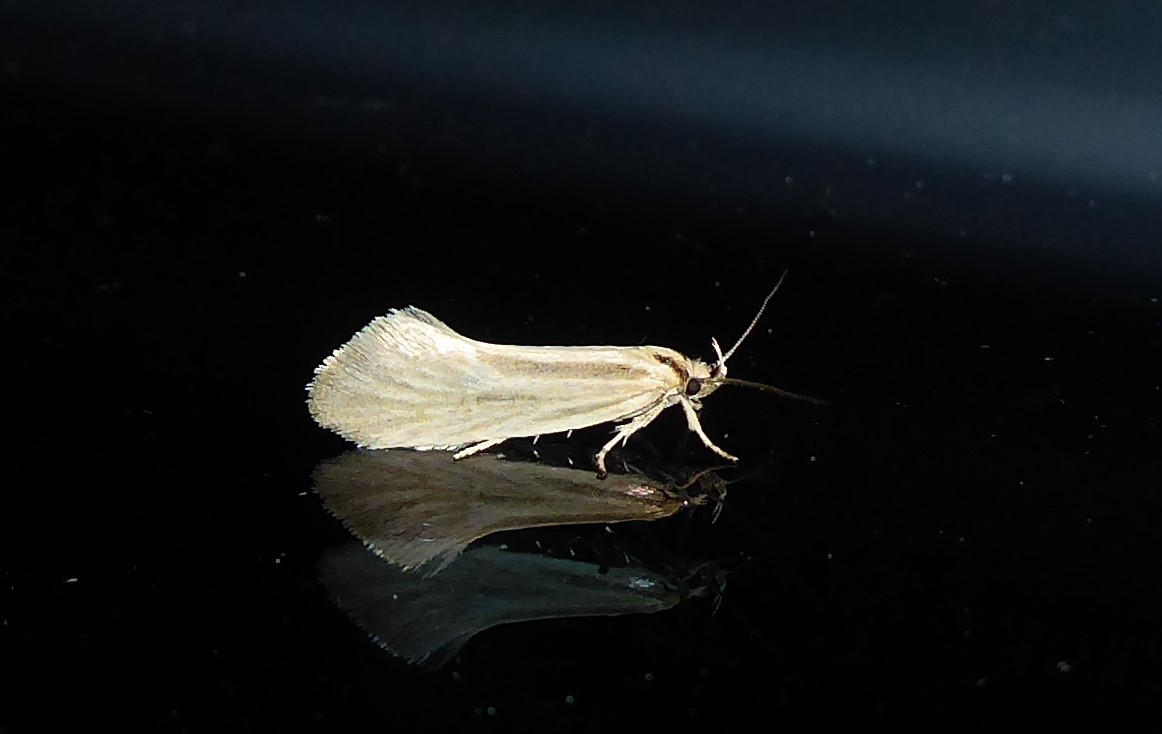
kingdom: Animalia
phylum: Arthropoda
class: Insecta
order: Lepidoptera
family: Oecophoridae
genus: Tingena
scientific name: Tingena chloradelpha
